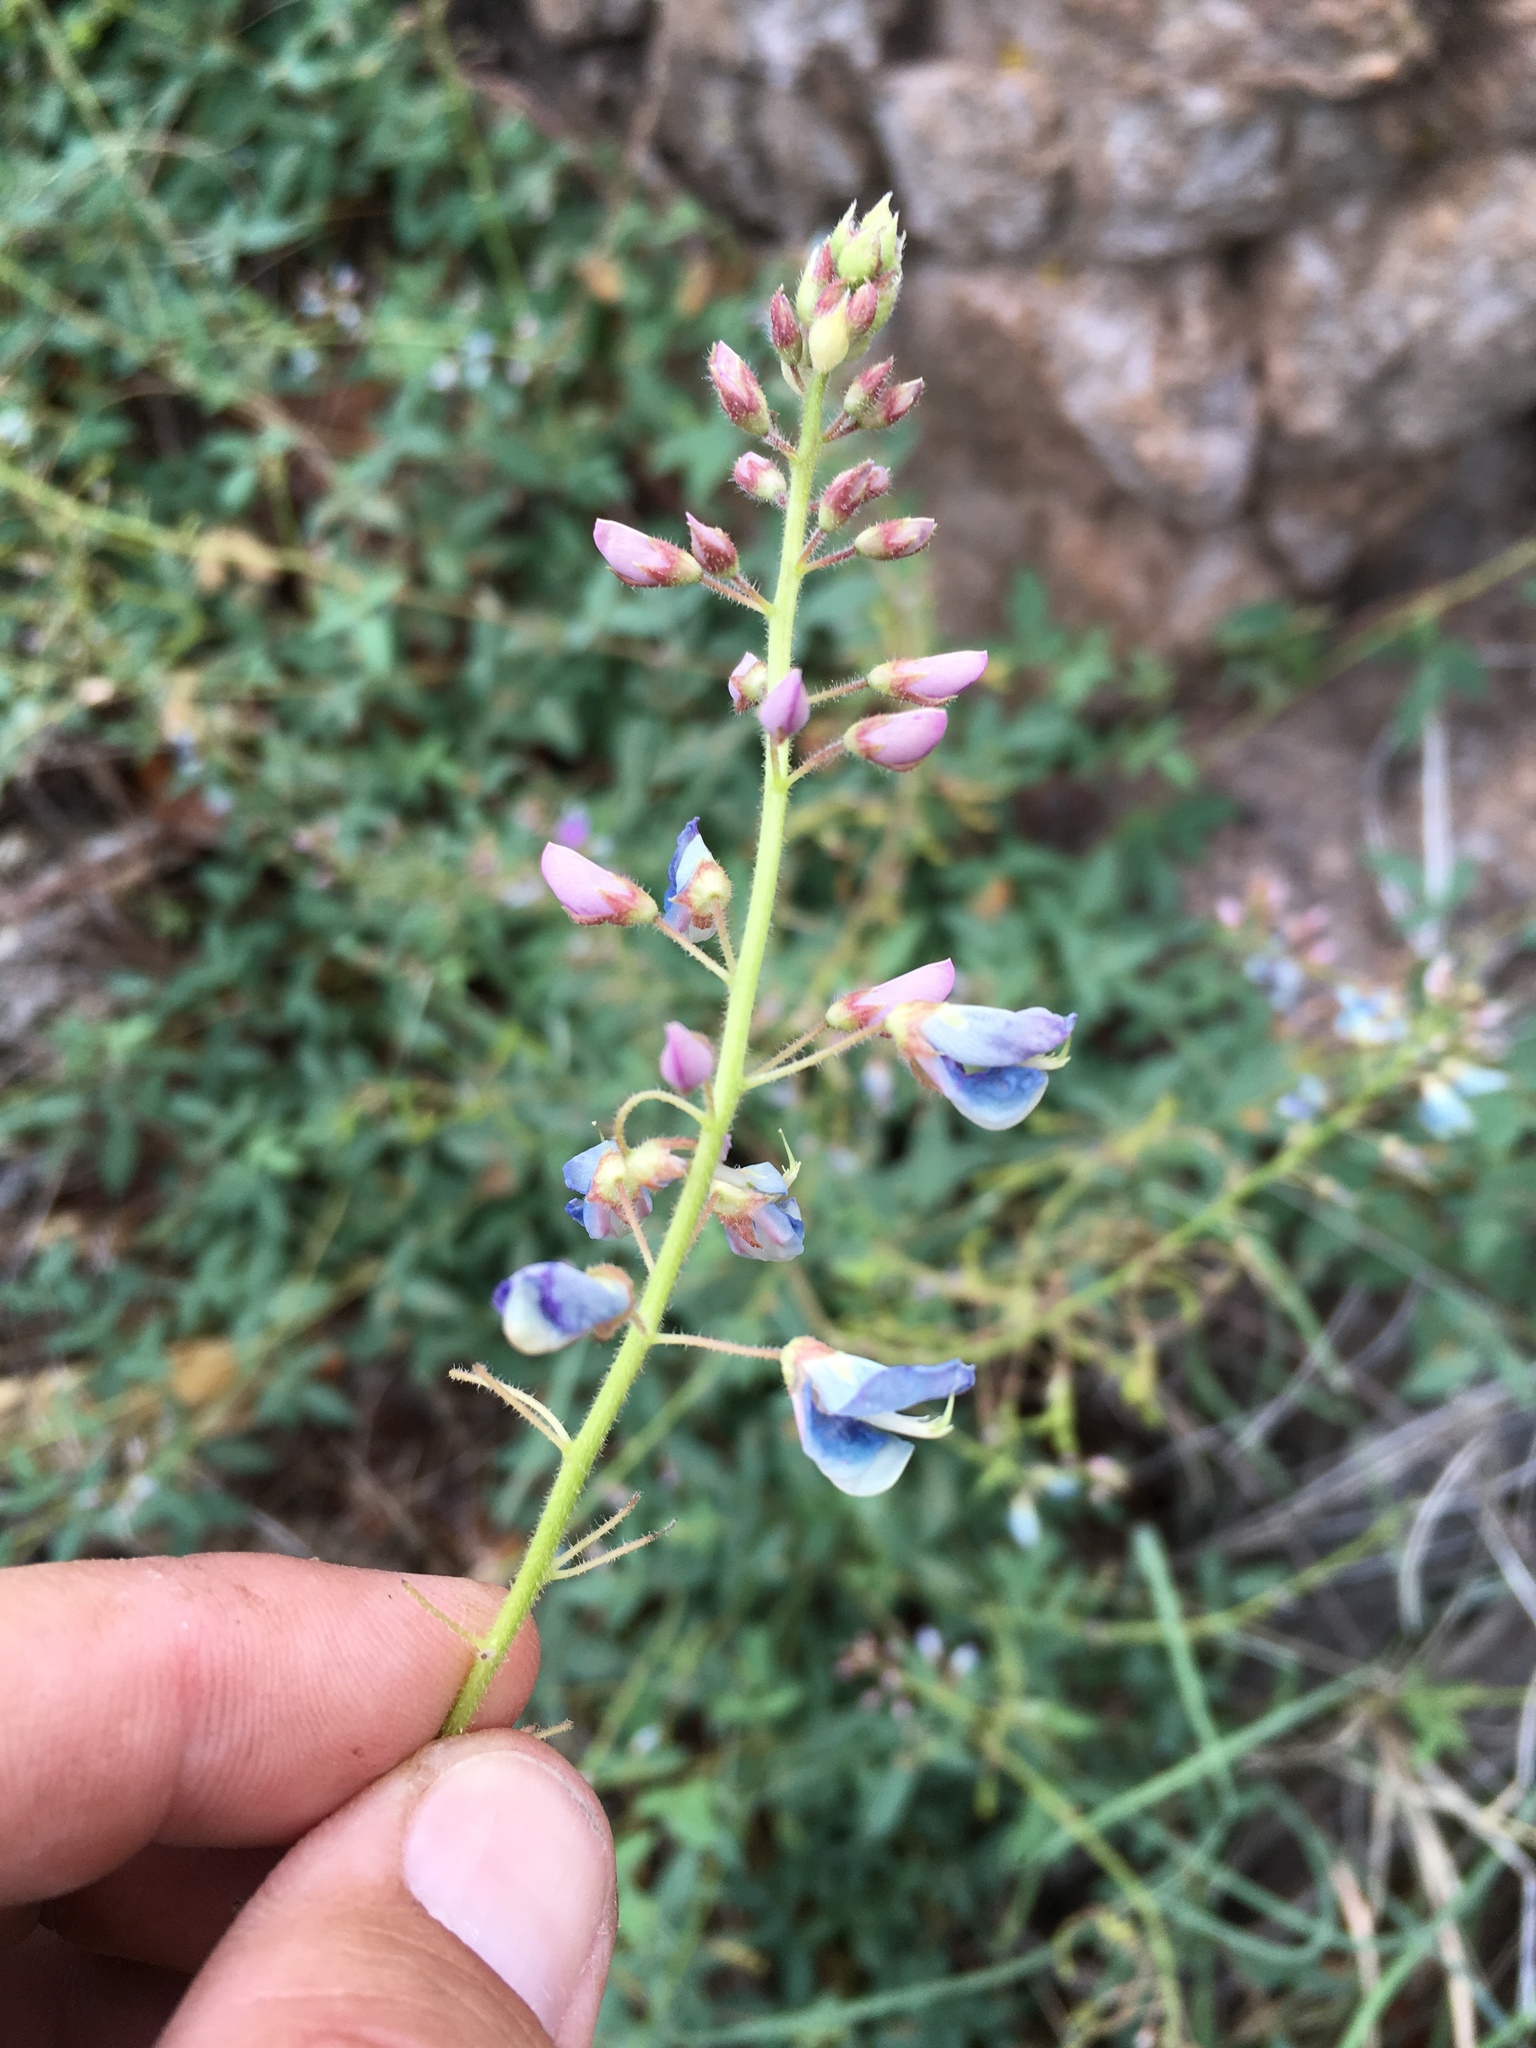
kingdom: Plantae
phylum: Tracheophyta
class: Magnoliopsida
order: Fabales
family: Fabaceae
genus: Desmodium
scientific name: Desmodium batocaulon
